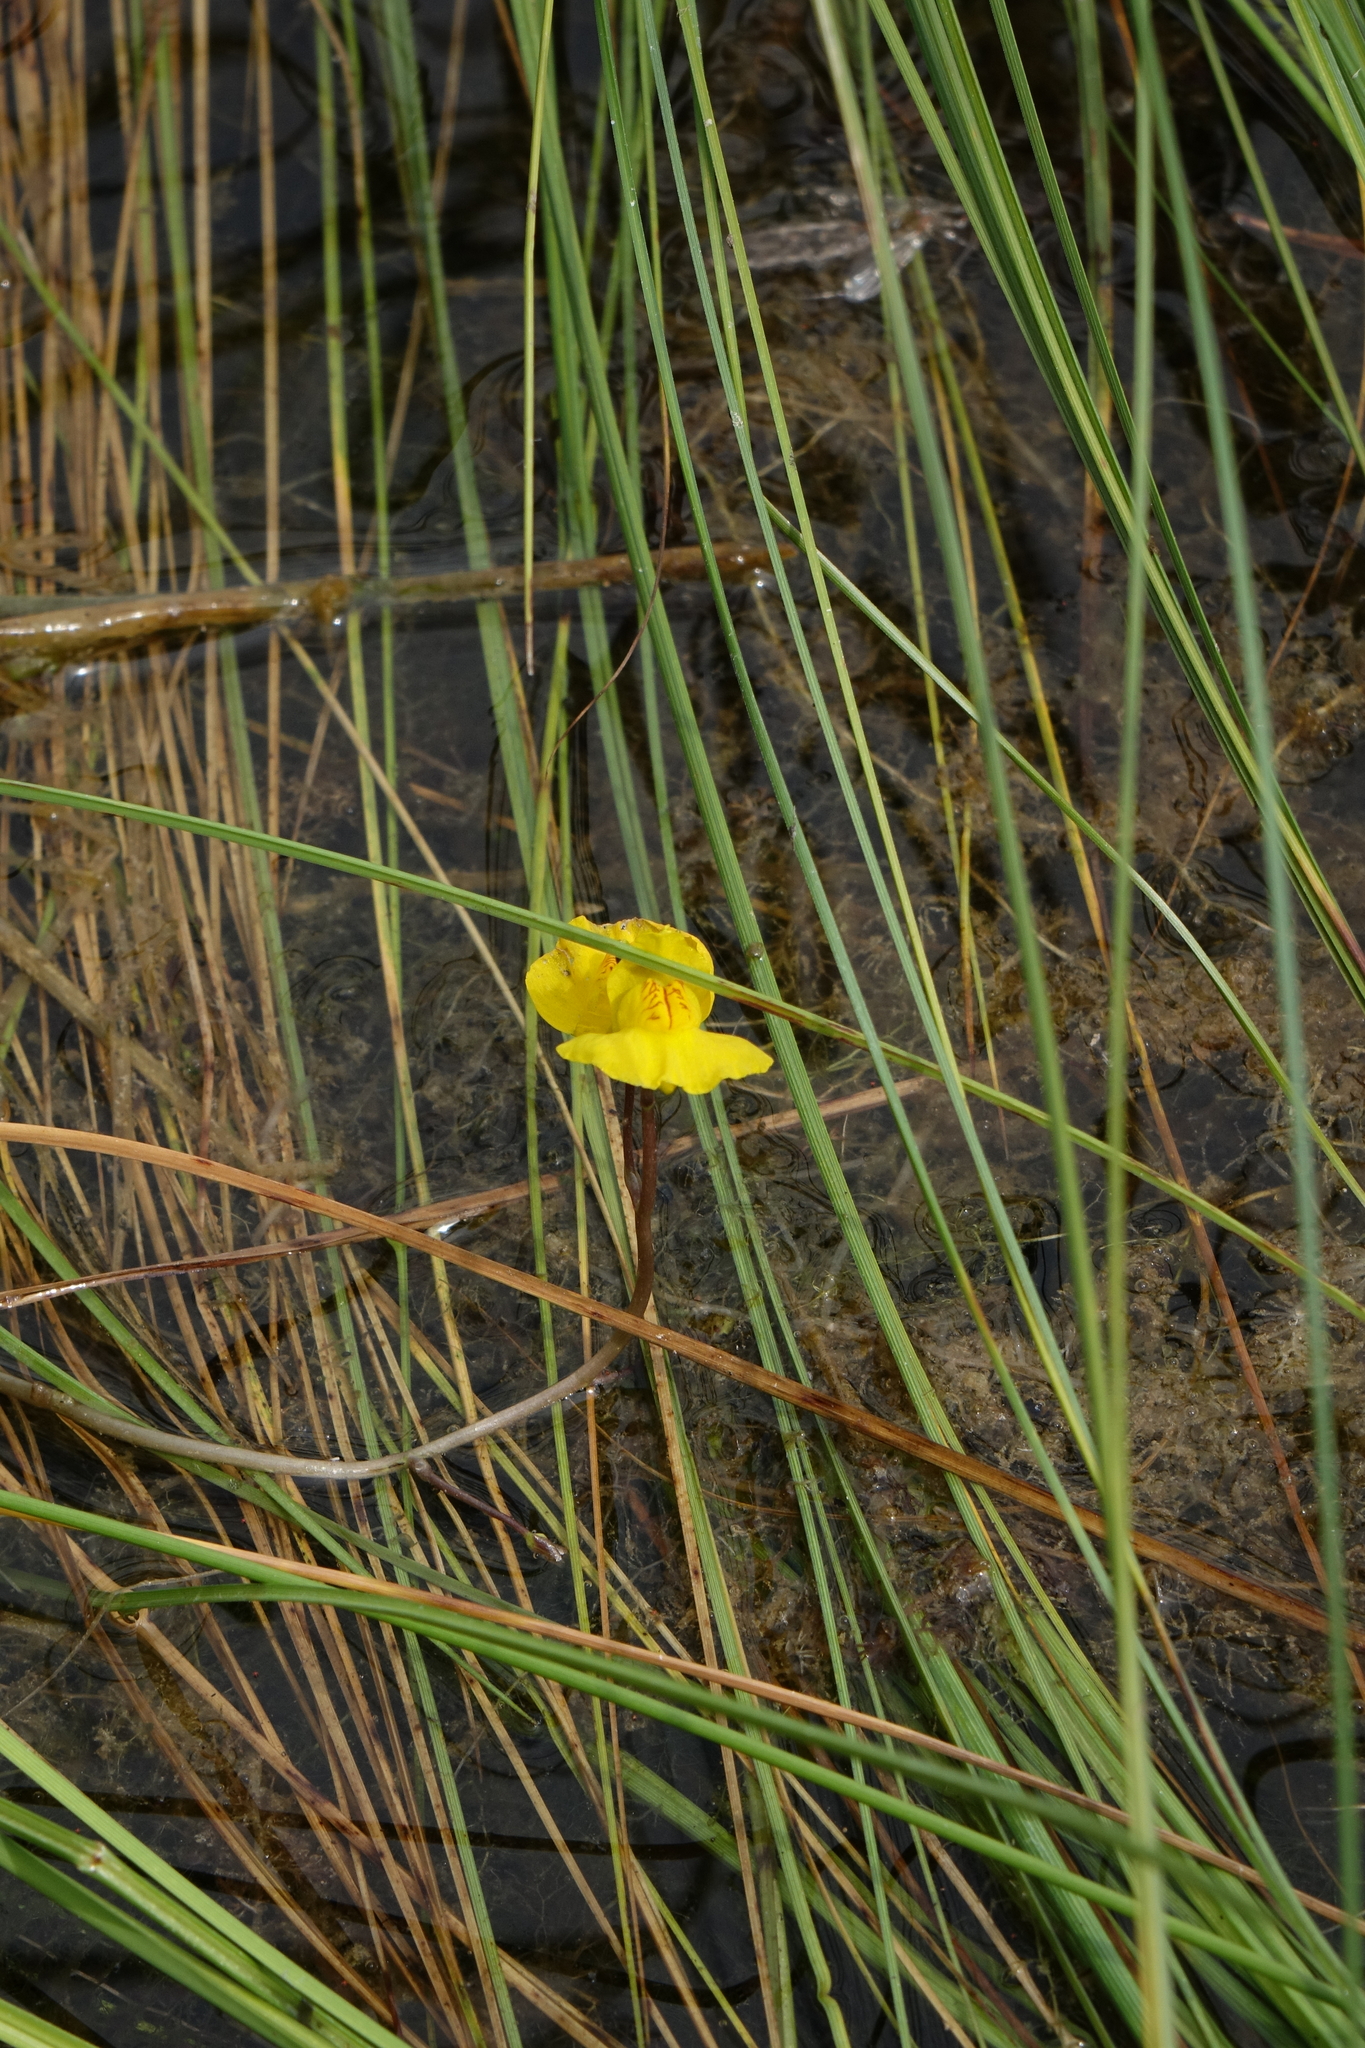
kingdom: Plantae
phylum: Tracheophyta
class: Magnoliopsida
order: Lamiales
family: Lentibulariaceae
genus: Utricularia
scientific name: Utricularia australis
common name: Bladderwort
